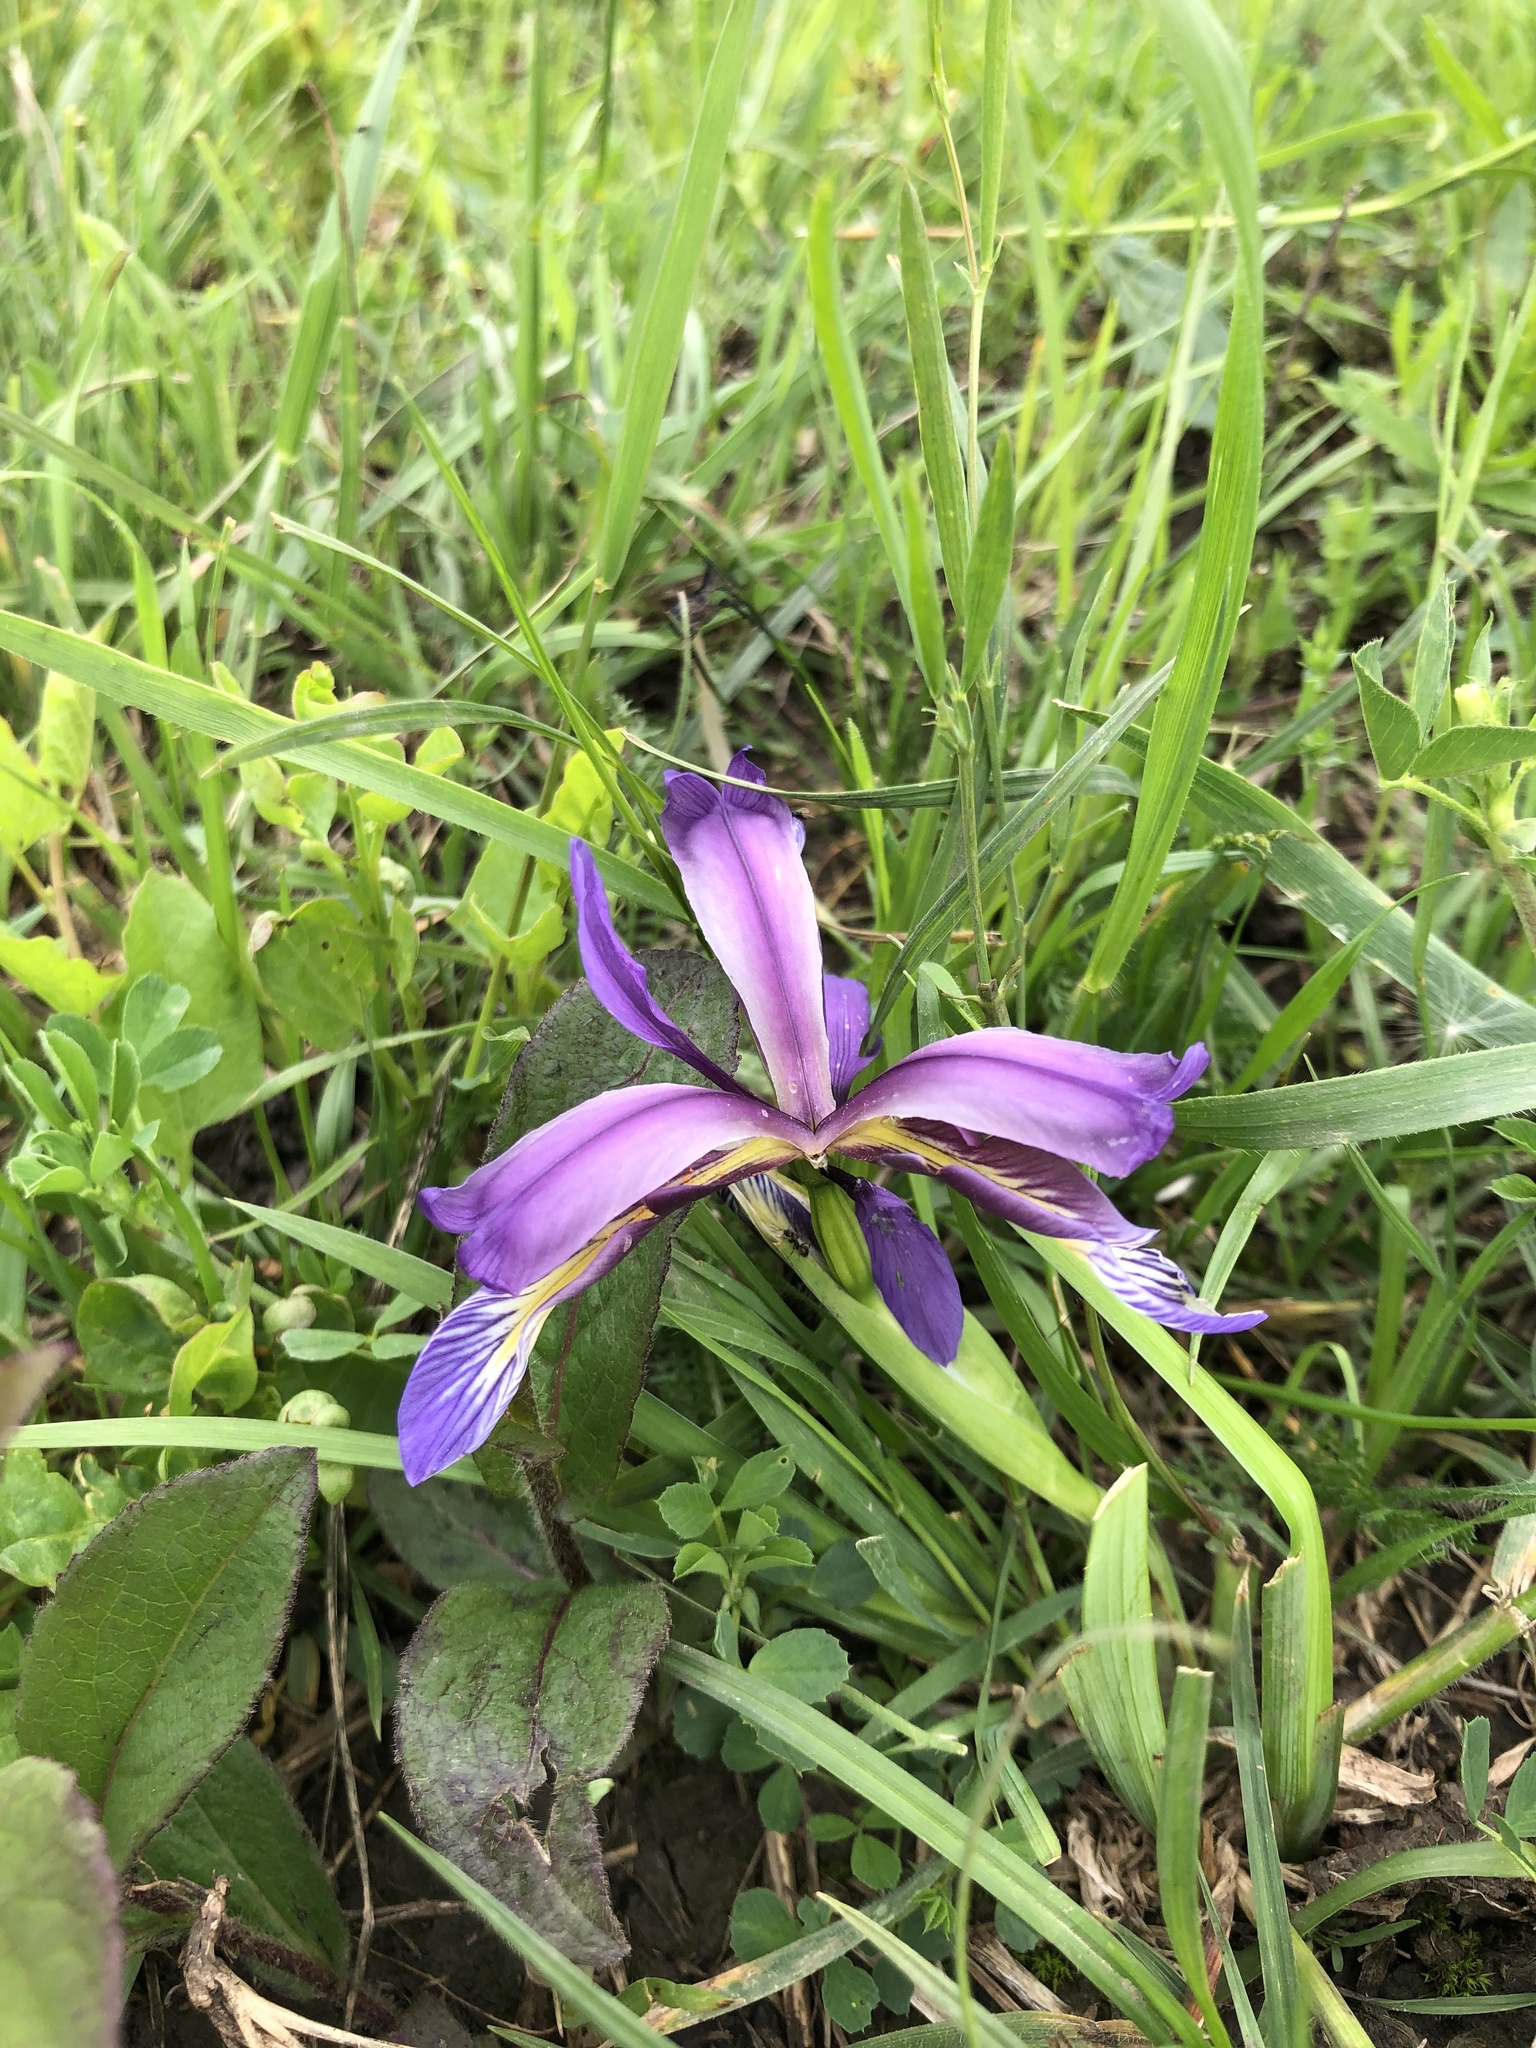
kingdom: Plantae
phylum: Tracheophyta
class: Liliopsida
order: Asparagales
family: Iridaceae
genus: Iris
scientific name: Iris graminea
